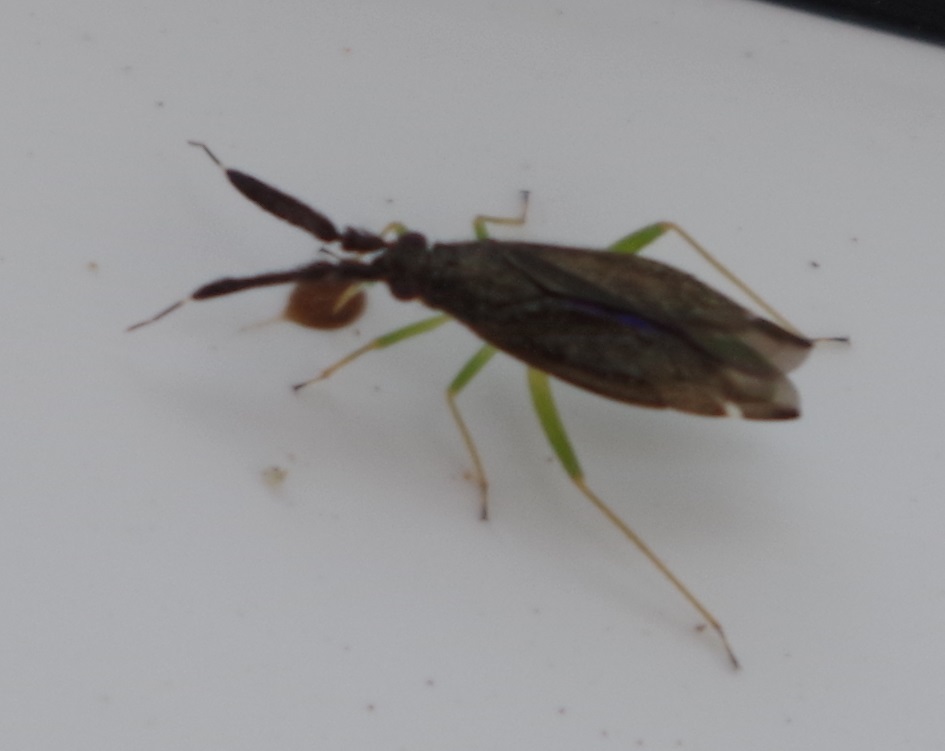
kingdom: Animalia
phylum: Arthropoda
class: Insecta
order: Hemiptera
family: Miridae
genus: Heterotoma
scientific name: Heterotoma planicornis
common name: Plant bug
